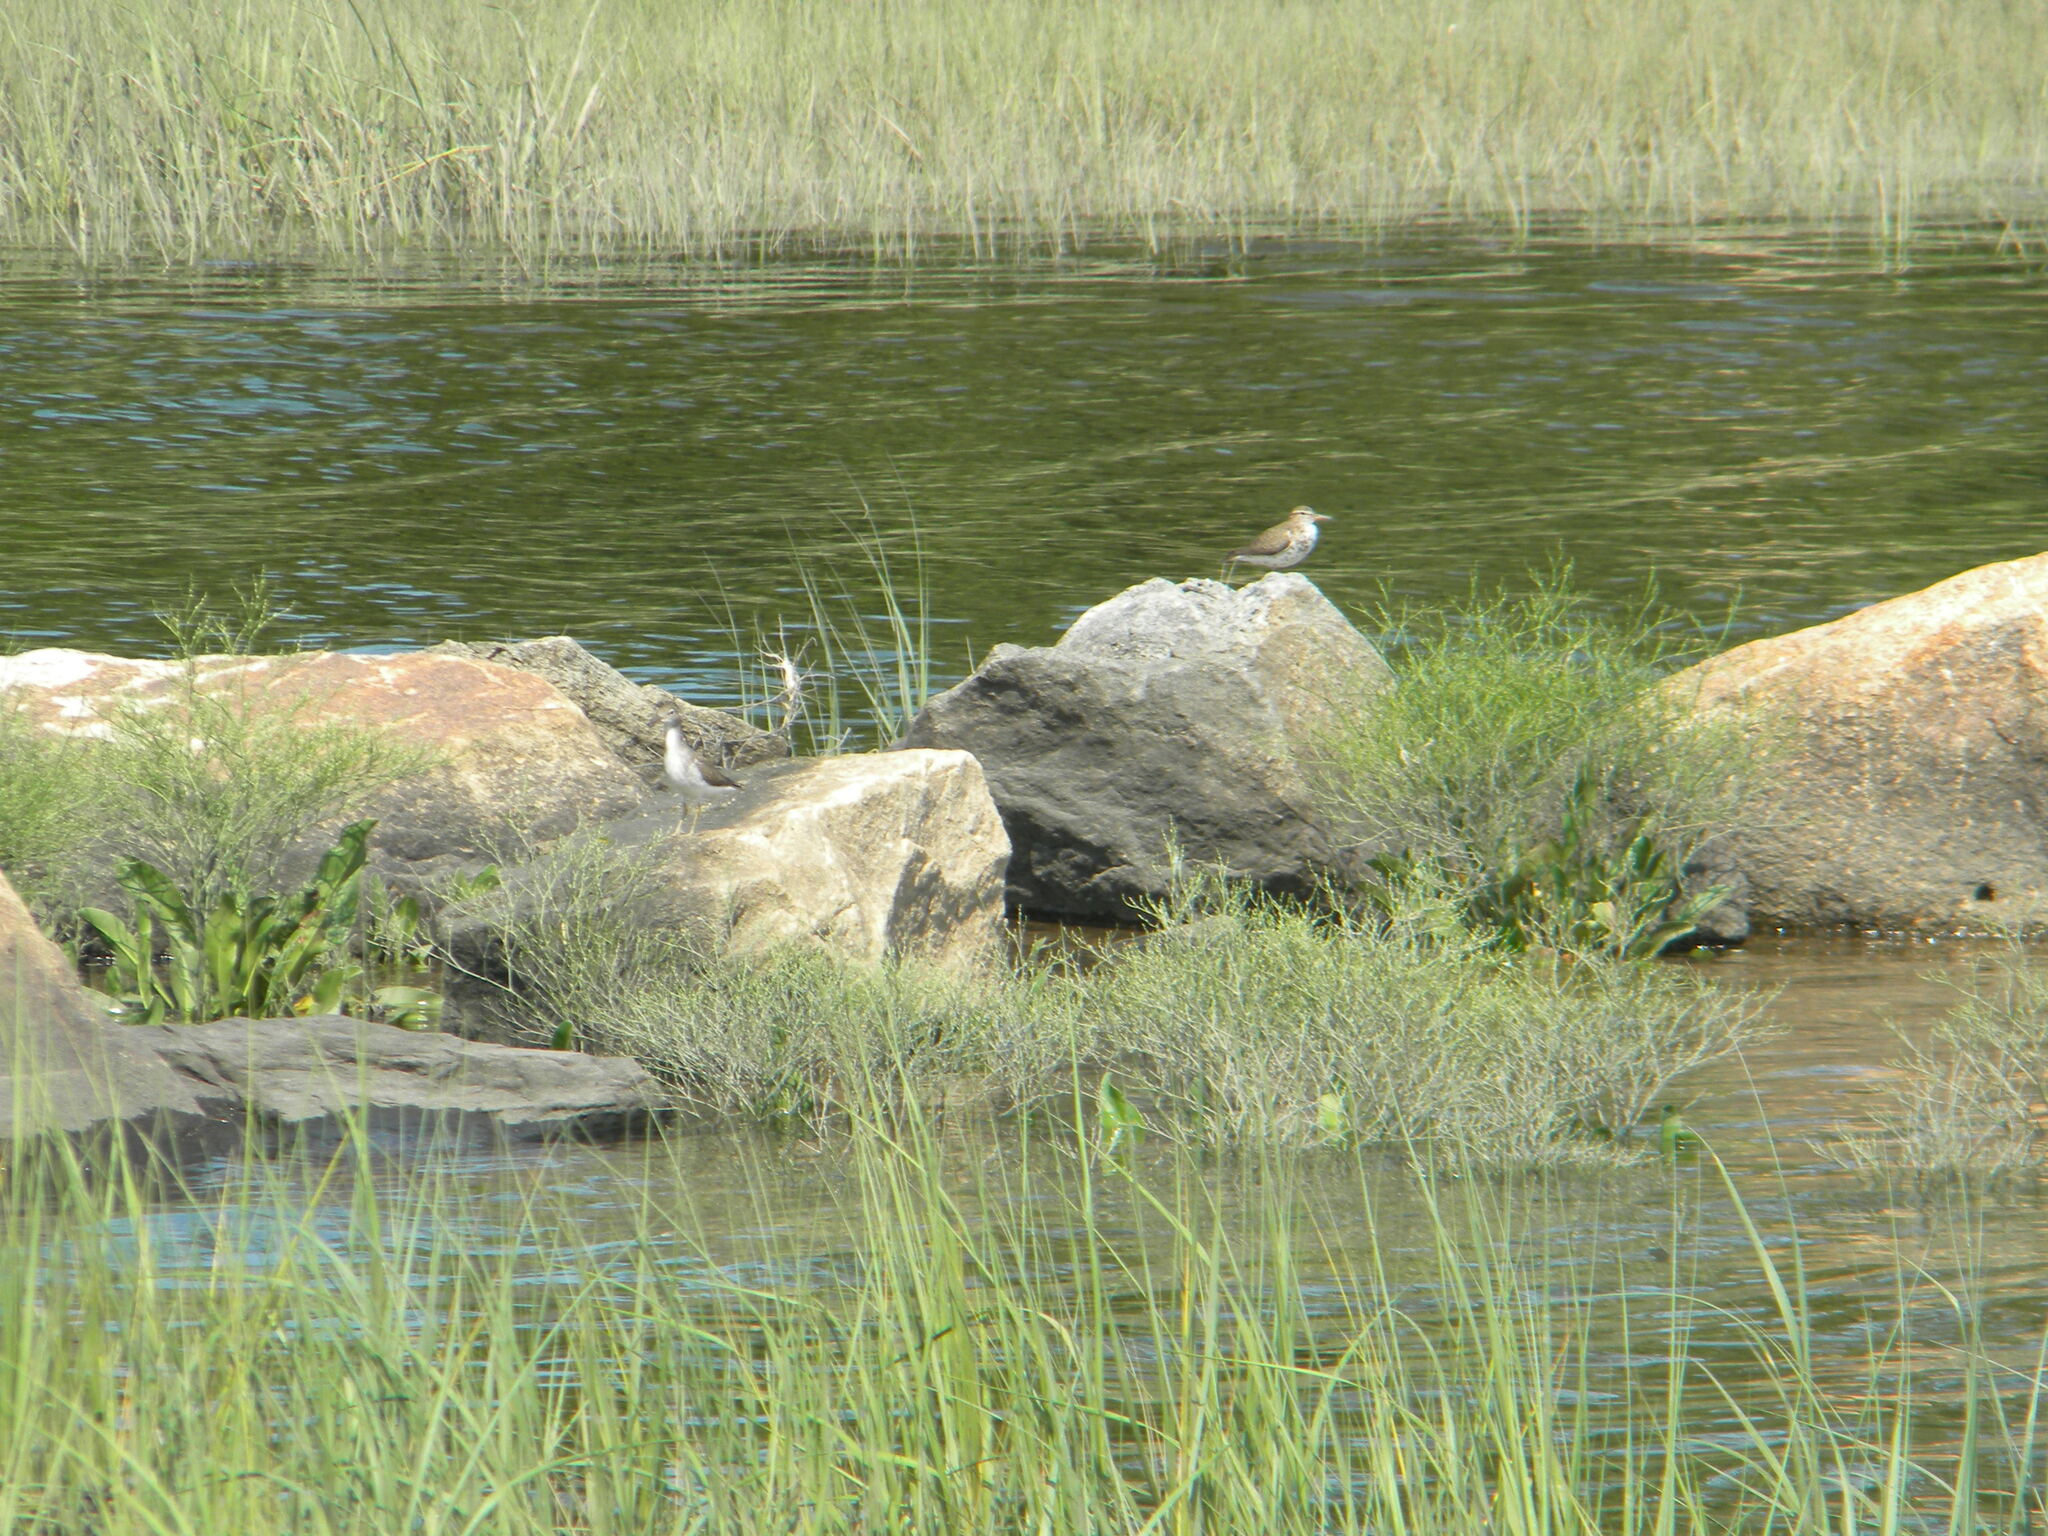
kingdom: Animalia
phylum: Chordata
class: Aves
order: Charadriiformes
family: Scolopacidae
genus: Actitis
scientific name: Actitis macularius
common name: Spotted sandpiper
